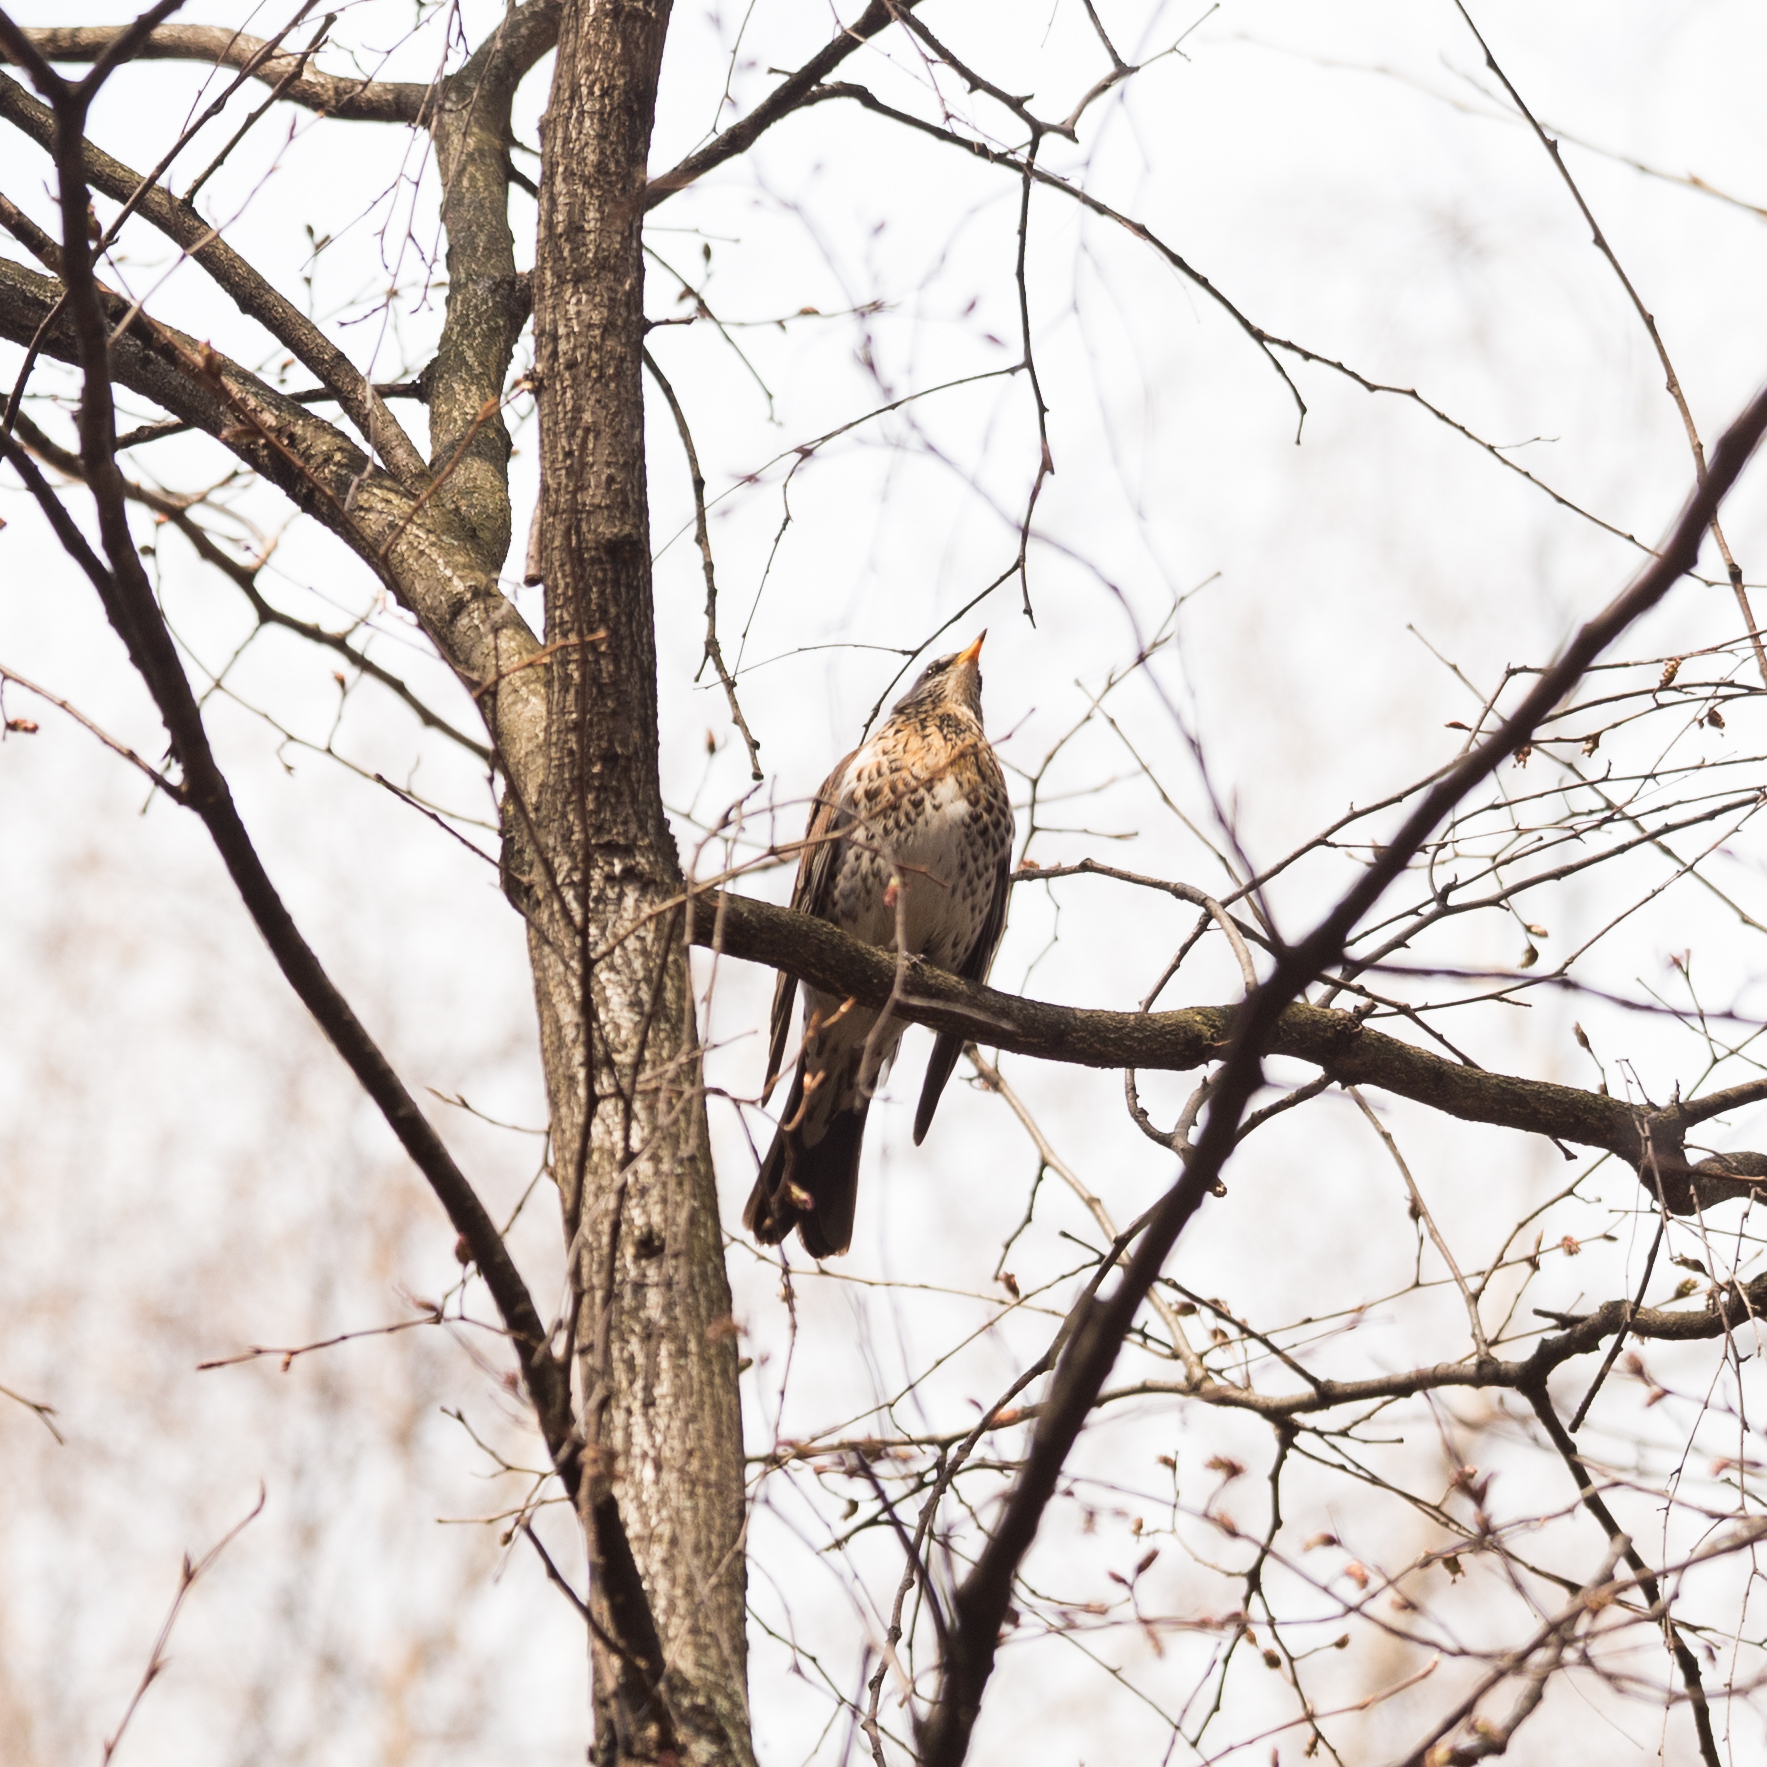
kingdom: Animalia
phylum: Chordata
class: Aves
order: Passeriformes
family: Turdidae
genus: Turdus
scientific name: Turdus pilaris
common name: Fieldfare
